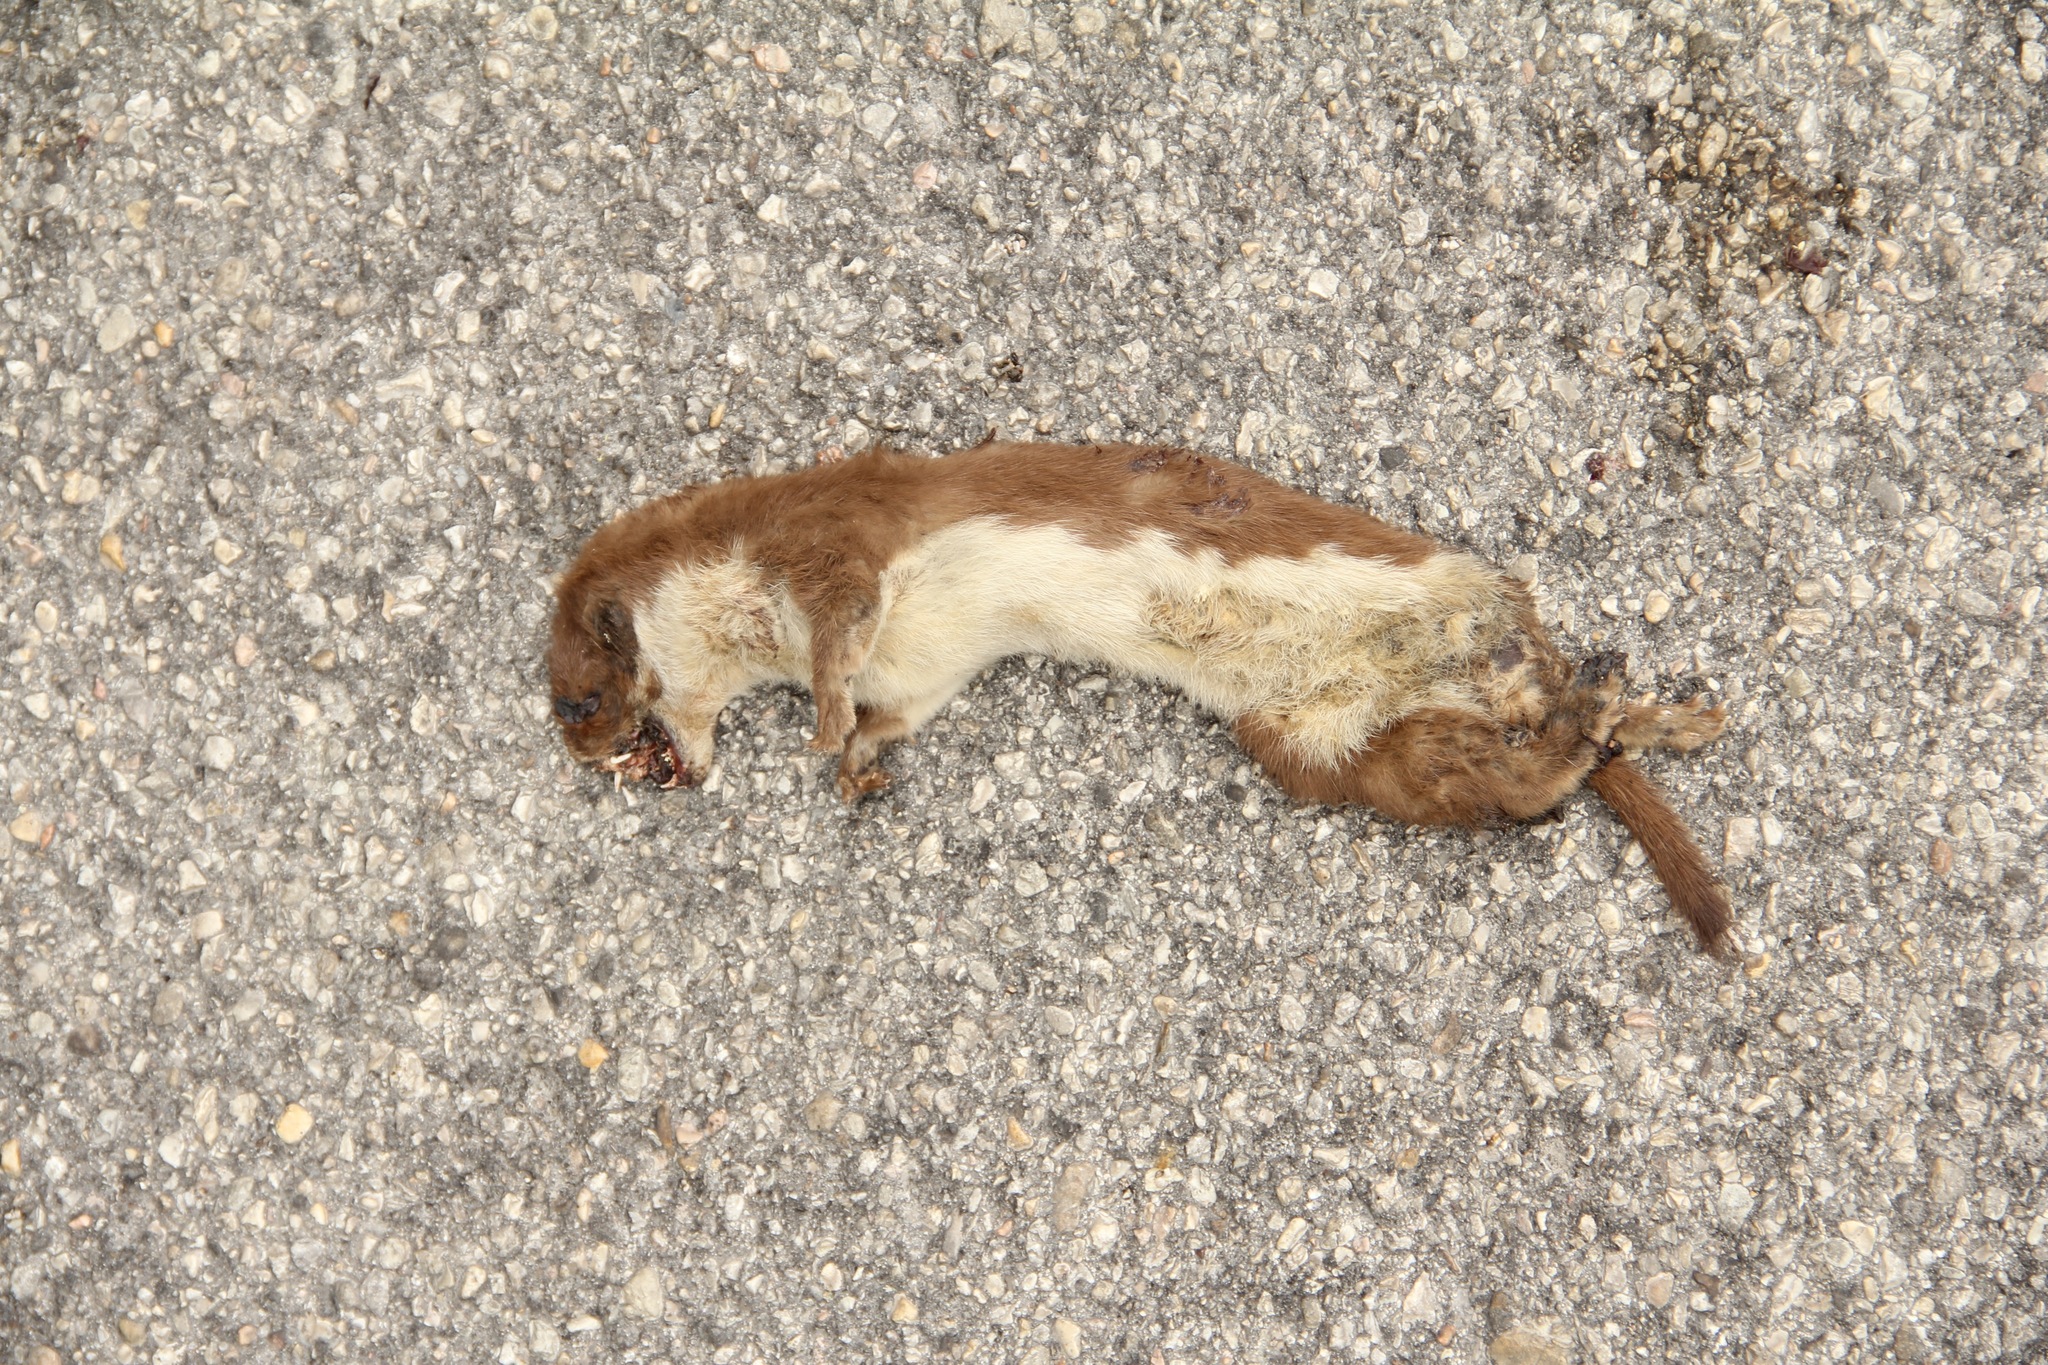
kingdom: Animalia
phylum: Chordata
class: Mammalia
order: Carnivora
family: Mustelidae
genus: Mustela
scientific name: Mustela nivalis
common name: Least weasel
